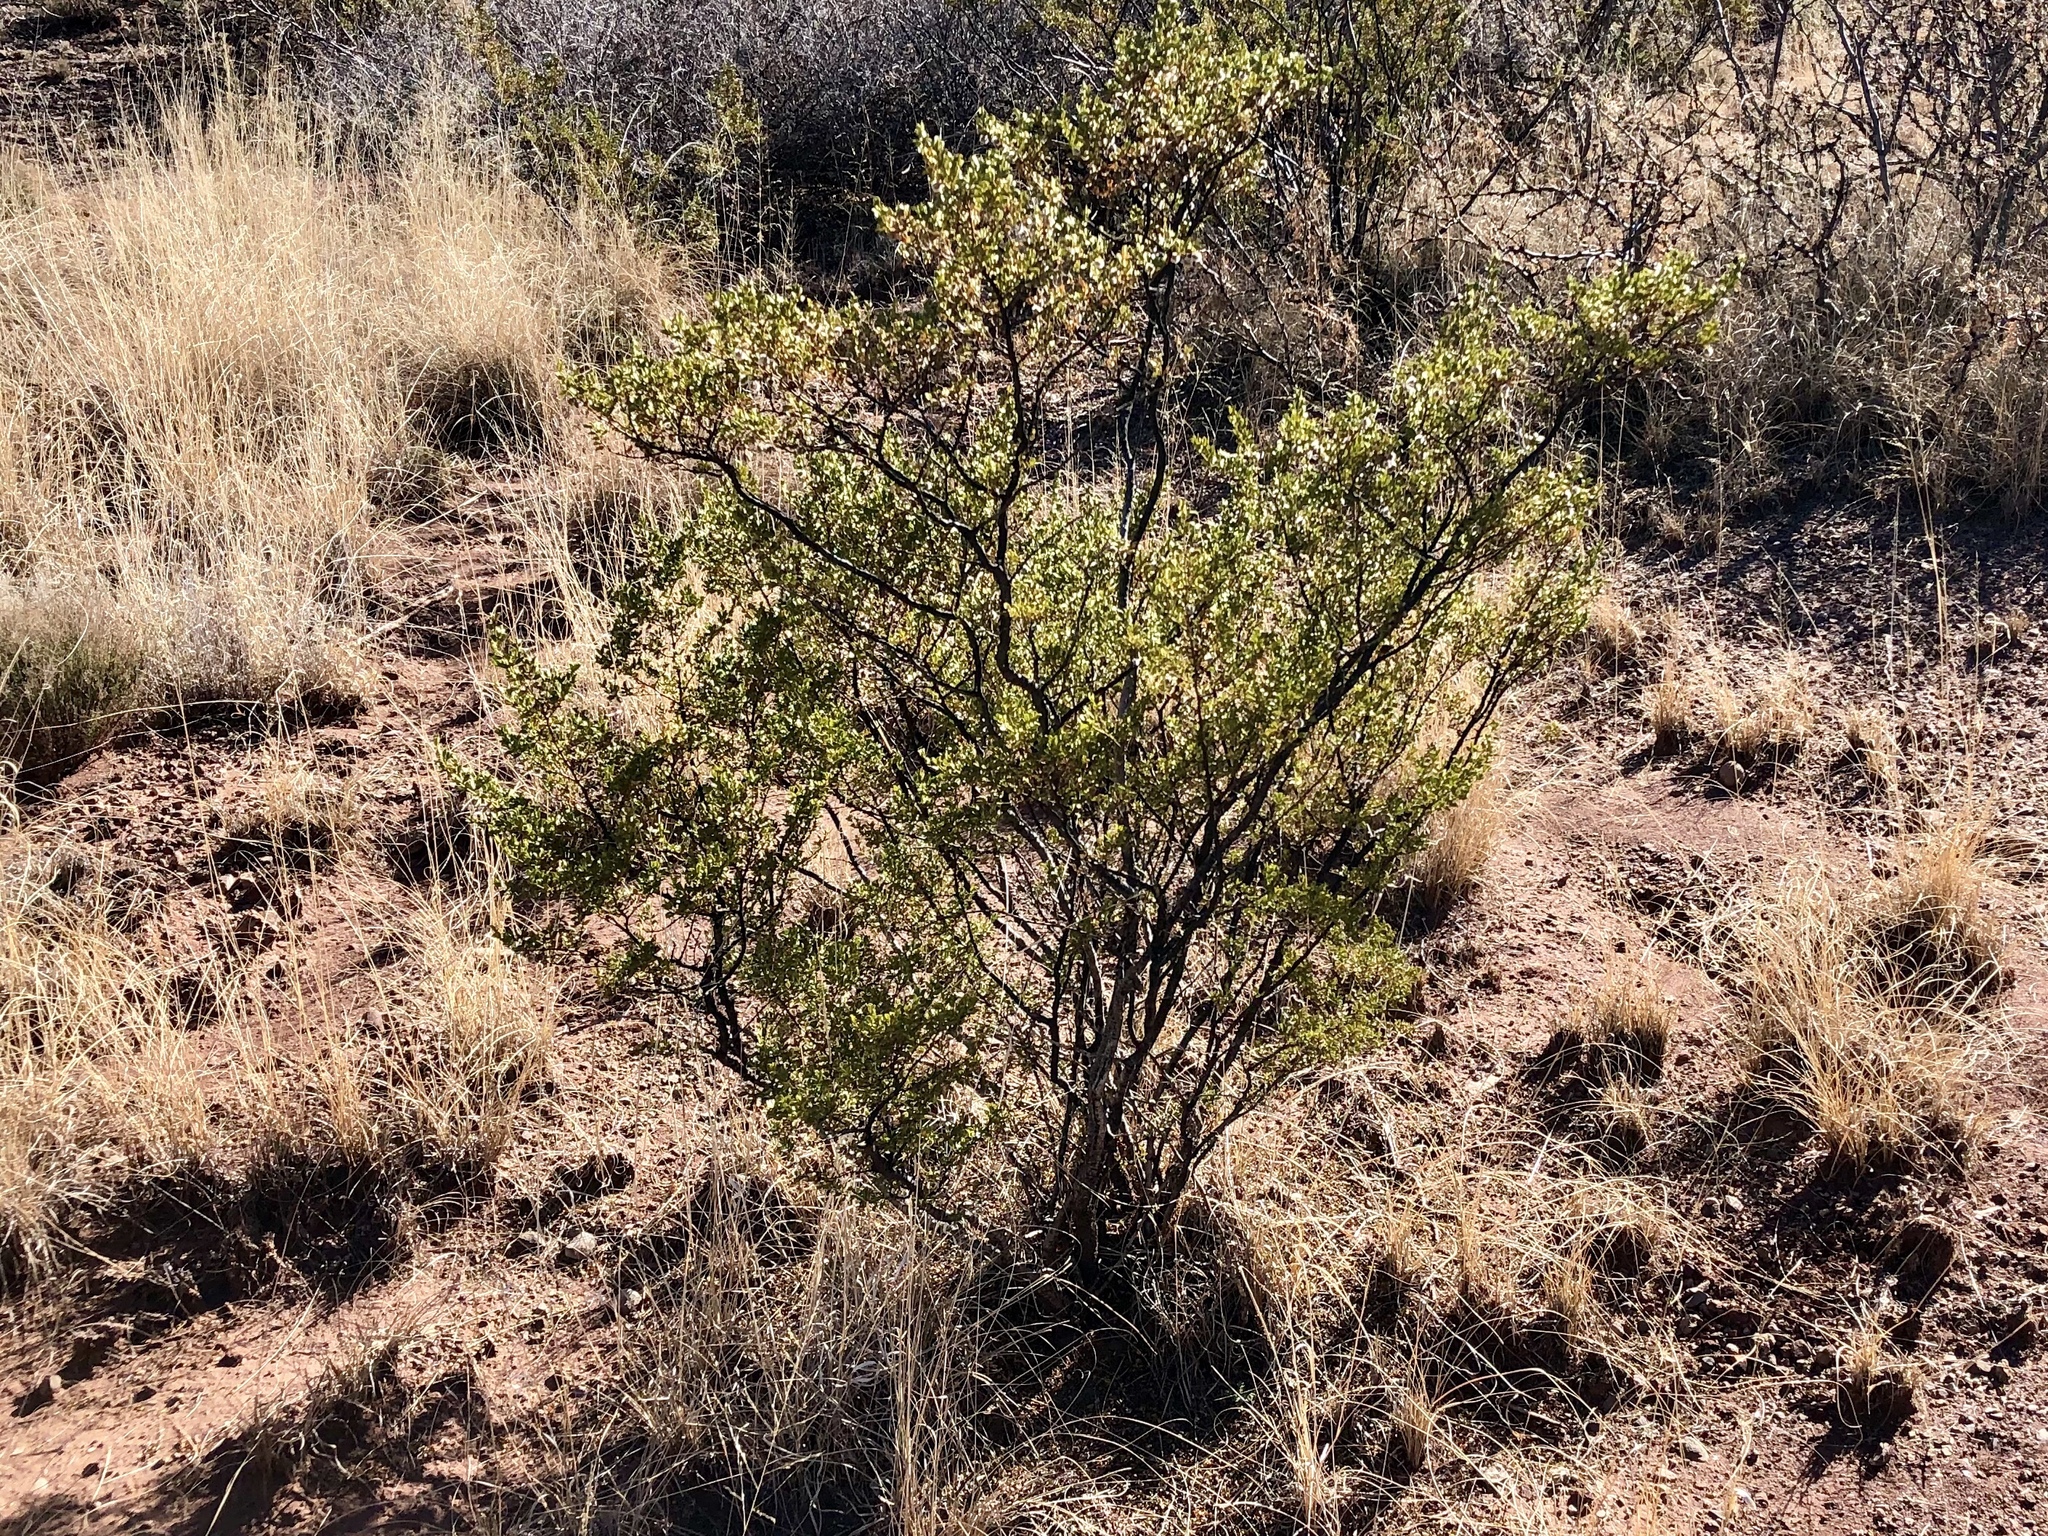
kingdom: Plantae
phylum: Tracheophyta
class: Magnoliopsida
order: Zygophyllales
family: Zygophyllaceae
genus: Larrea
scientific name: Larrea tridentata
